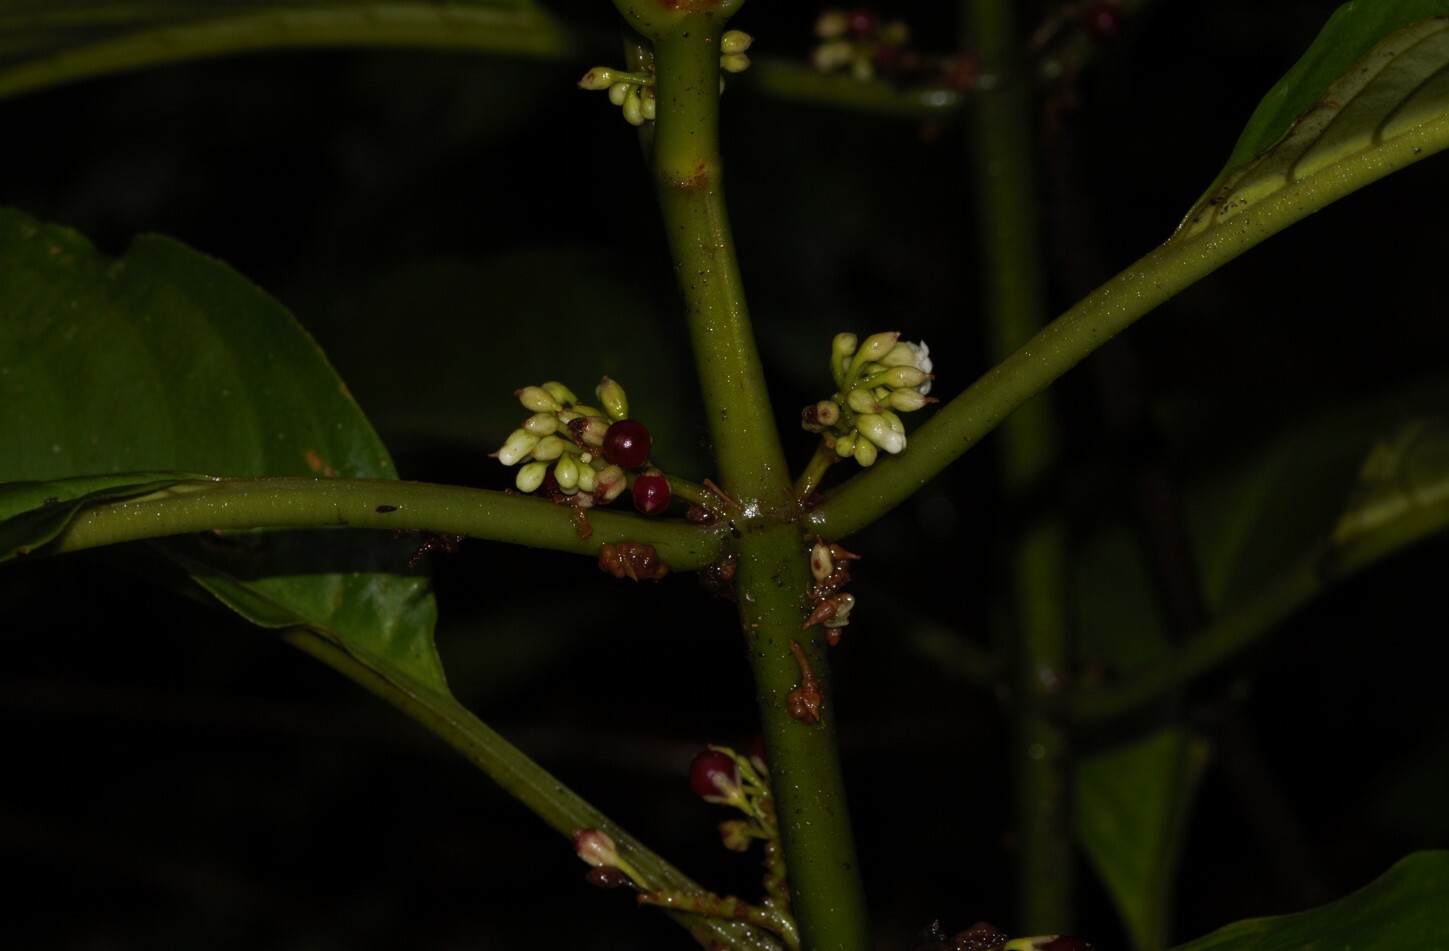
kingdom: Plantae
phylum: Tracheophyta
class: Magnoliopsida
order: Lamiales
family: Gesneriaceae
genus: Besleria
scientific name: Besleria flavovirens
